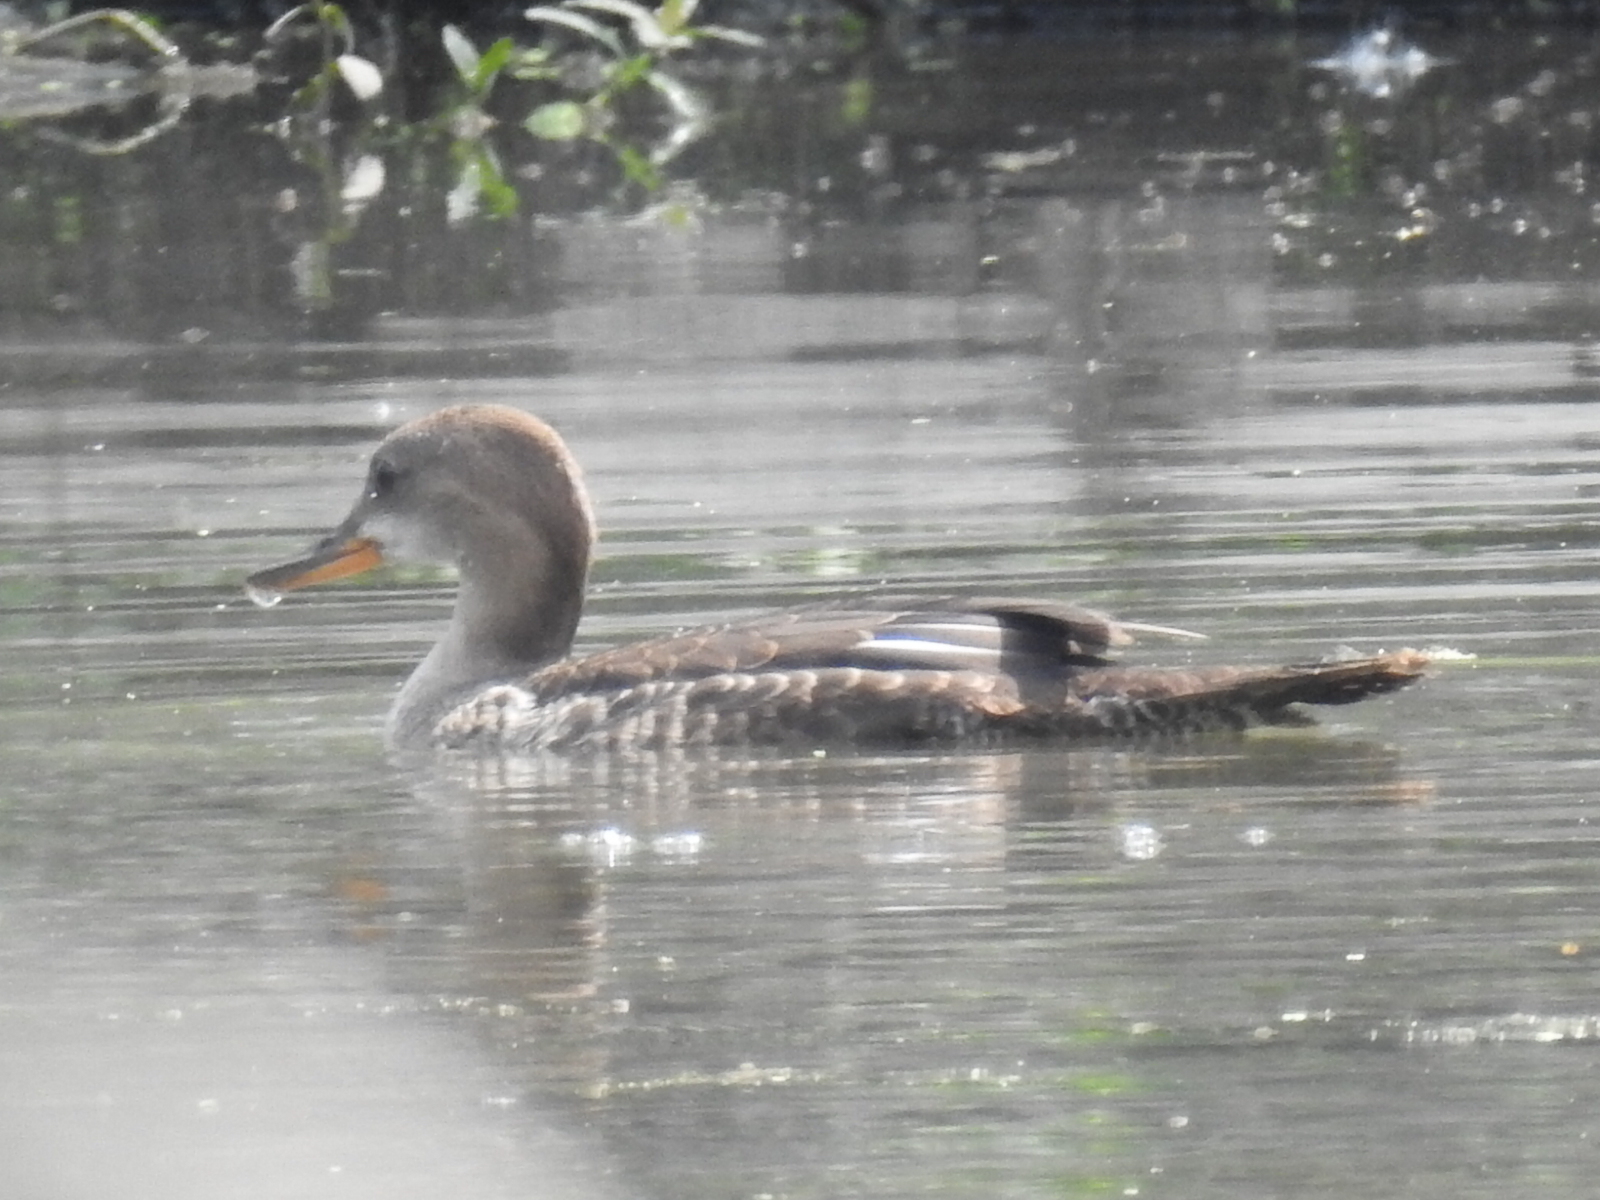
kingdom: Animalia
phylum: Chordata
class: Aves
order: Anseriformes
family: Anatidae
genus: Lophodytes
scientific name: Lophodytes cucullatus
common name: Hooded merganser
